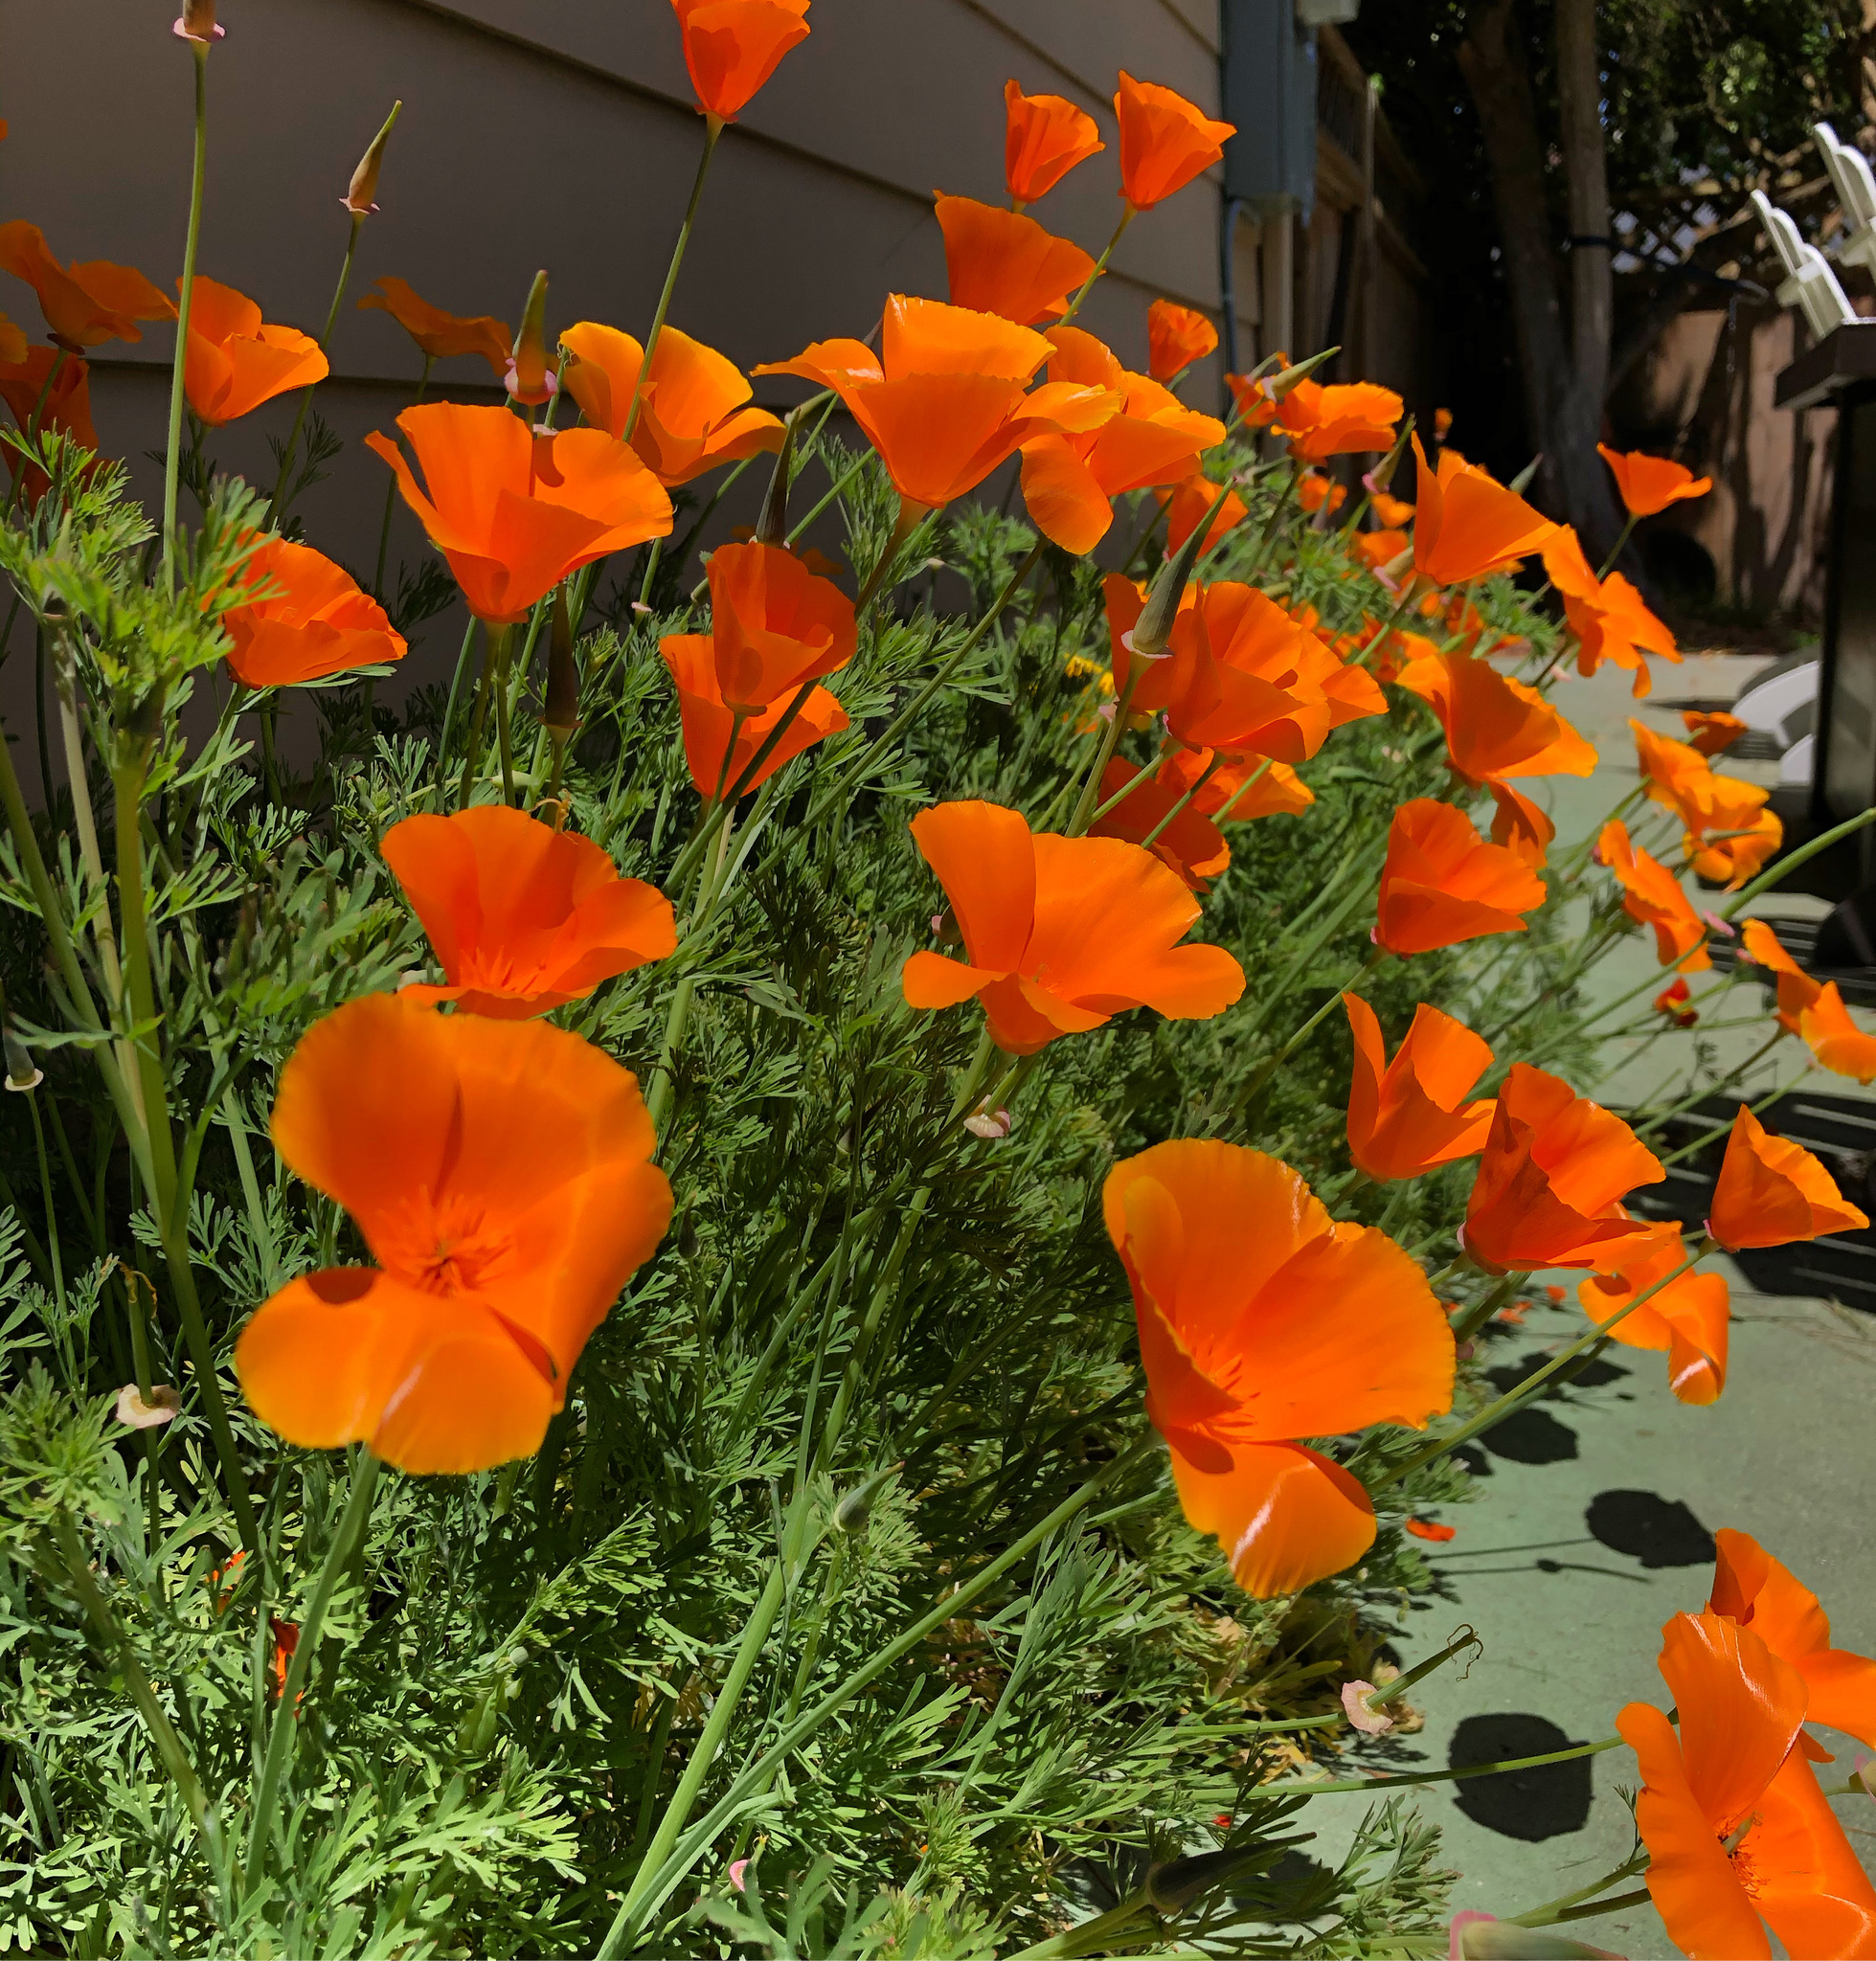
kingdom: Plantae
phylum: Tracheophyta
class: Magnoliopsida
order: Ranunculales
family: Papaveraceae
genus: Eschscholzia
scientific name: Eschscholzia californica
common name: California poppy
